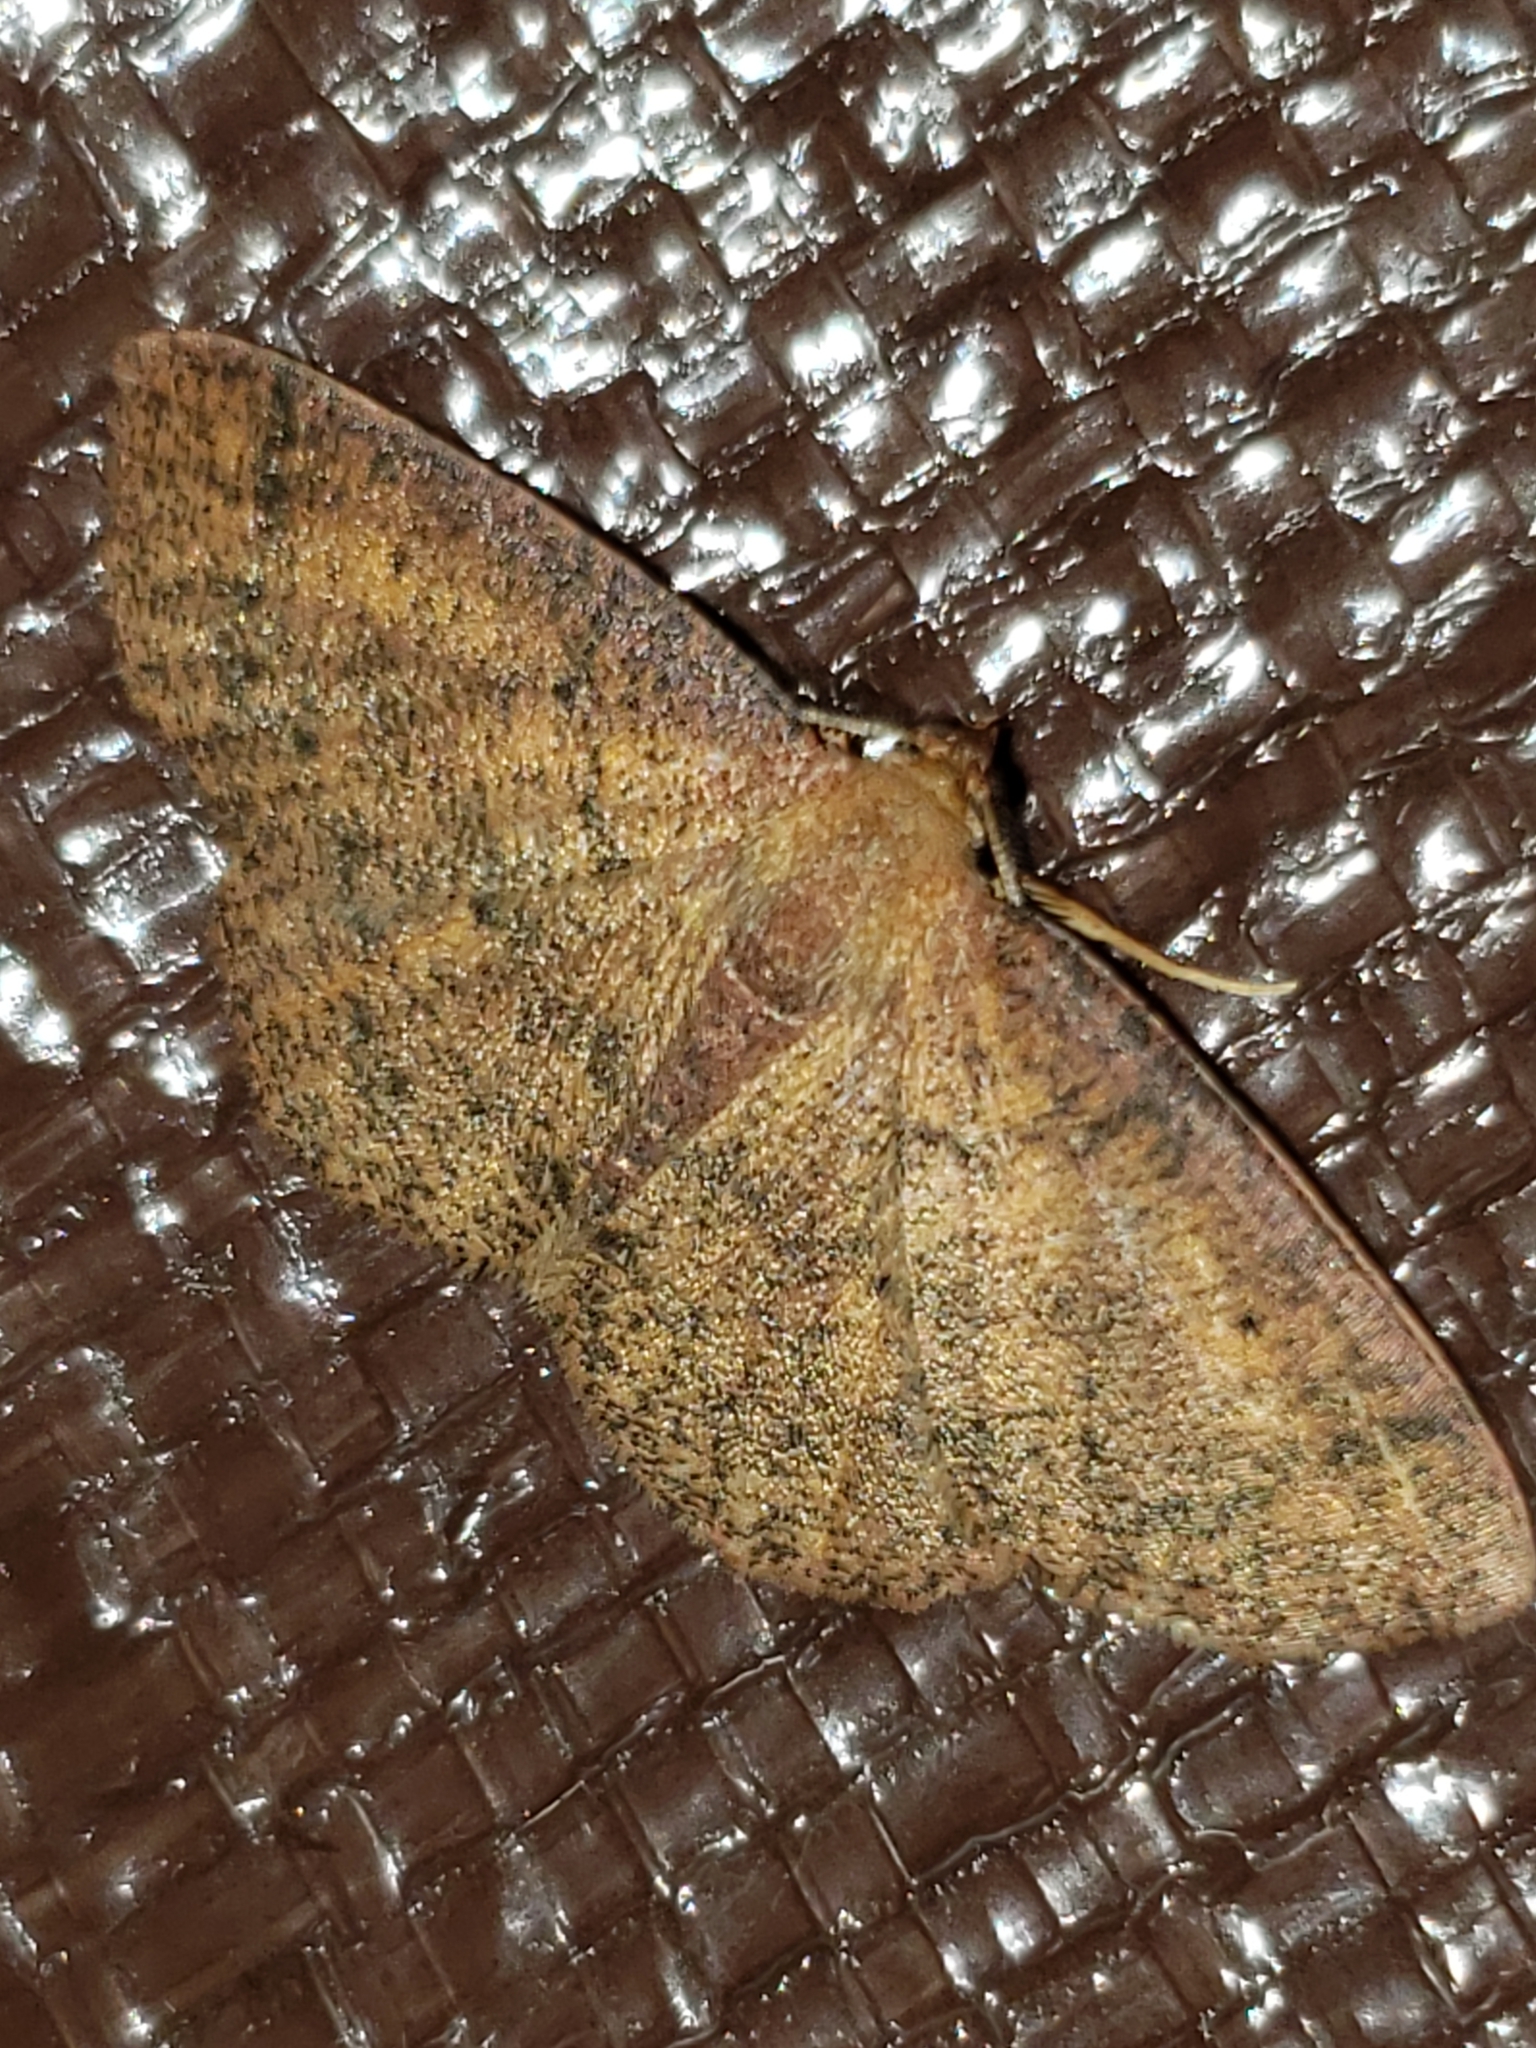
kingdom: Animalia
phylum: Arthropoda
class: Insecta
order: Lepidoptera
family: Geometridae
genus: Ilexia
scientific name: Ilexia intractata
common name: Black-dotted ruddy moth
